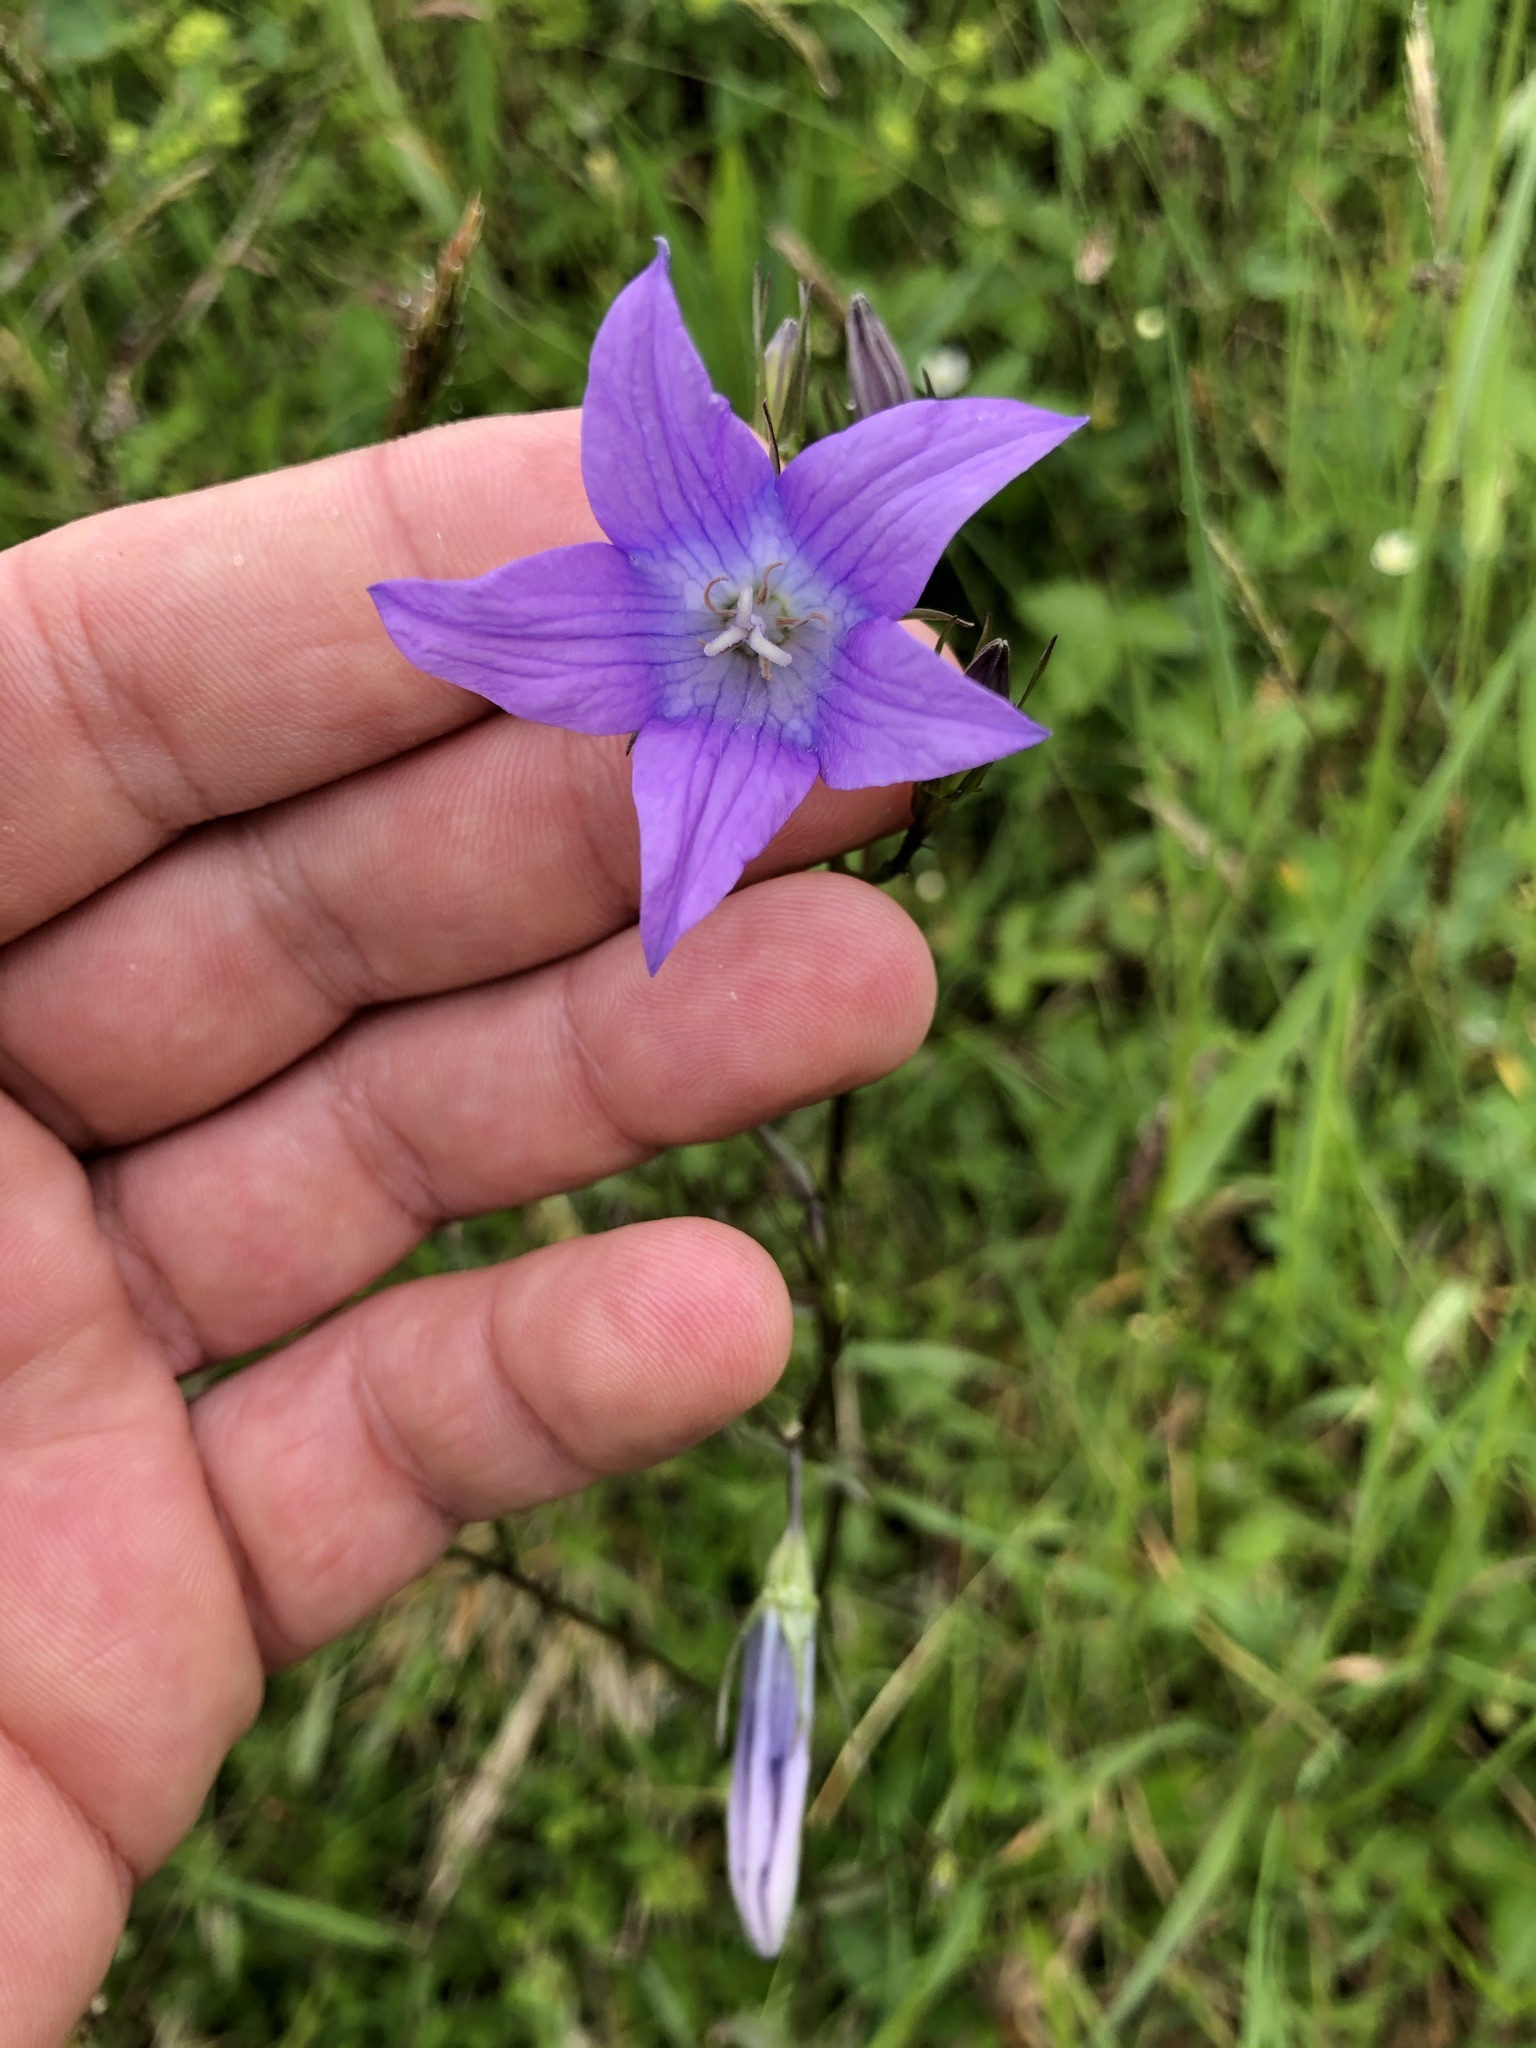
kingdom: Plantae
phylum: Tracheophyta
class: Magnoliopsida
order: Asterales
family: Campanulaceae
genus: Campanula
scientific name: Campanula patula
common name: Spreading bellflower
